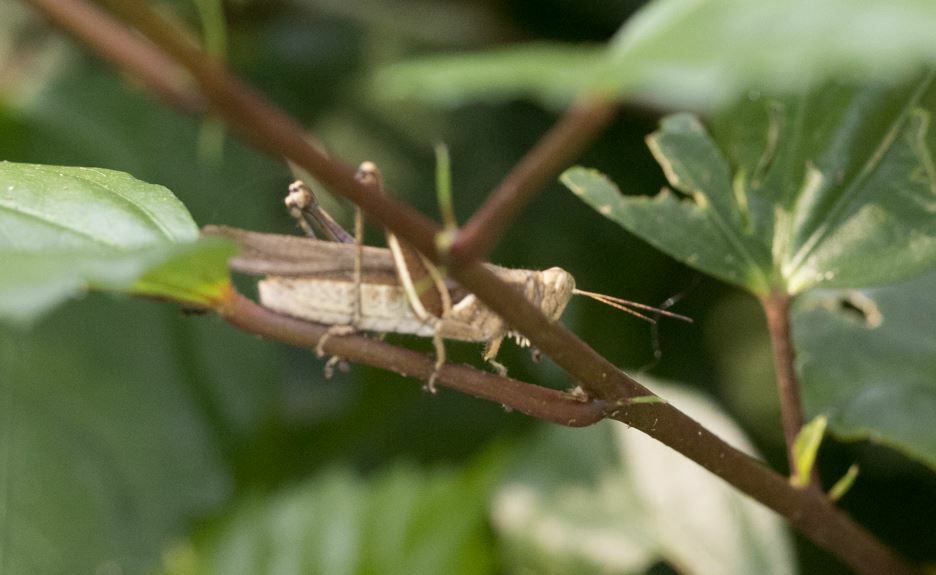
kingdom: Animalia
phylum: Arthropoda
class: Insecta
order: Orthoptera
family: Acrididae
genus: Abracris
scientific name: Abracris flavolineata
